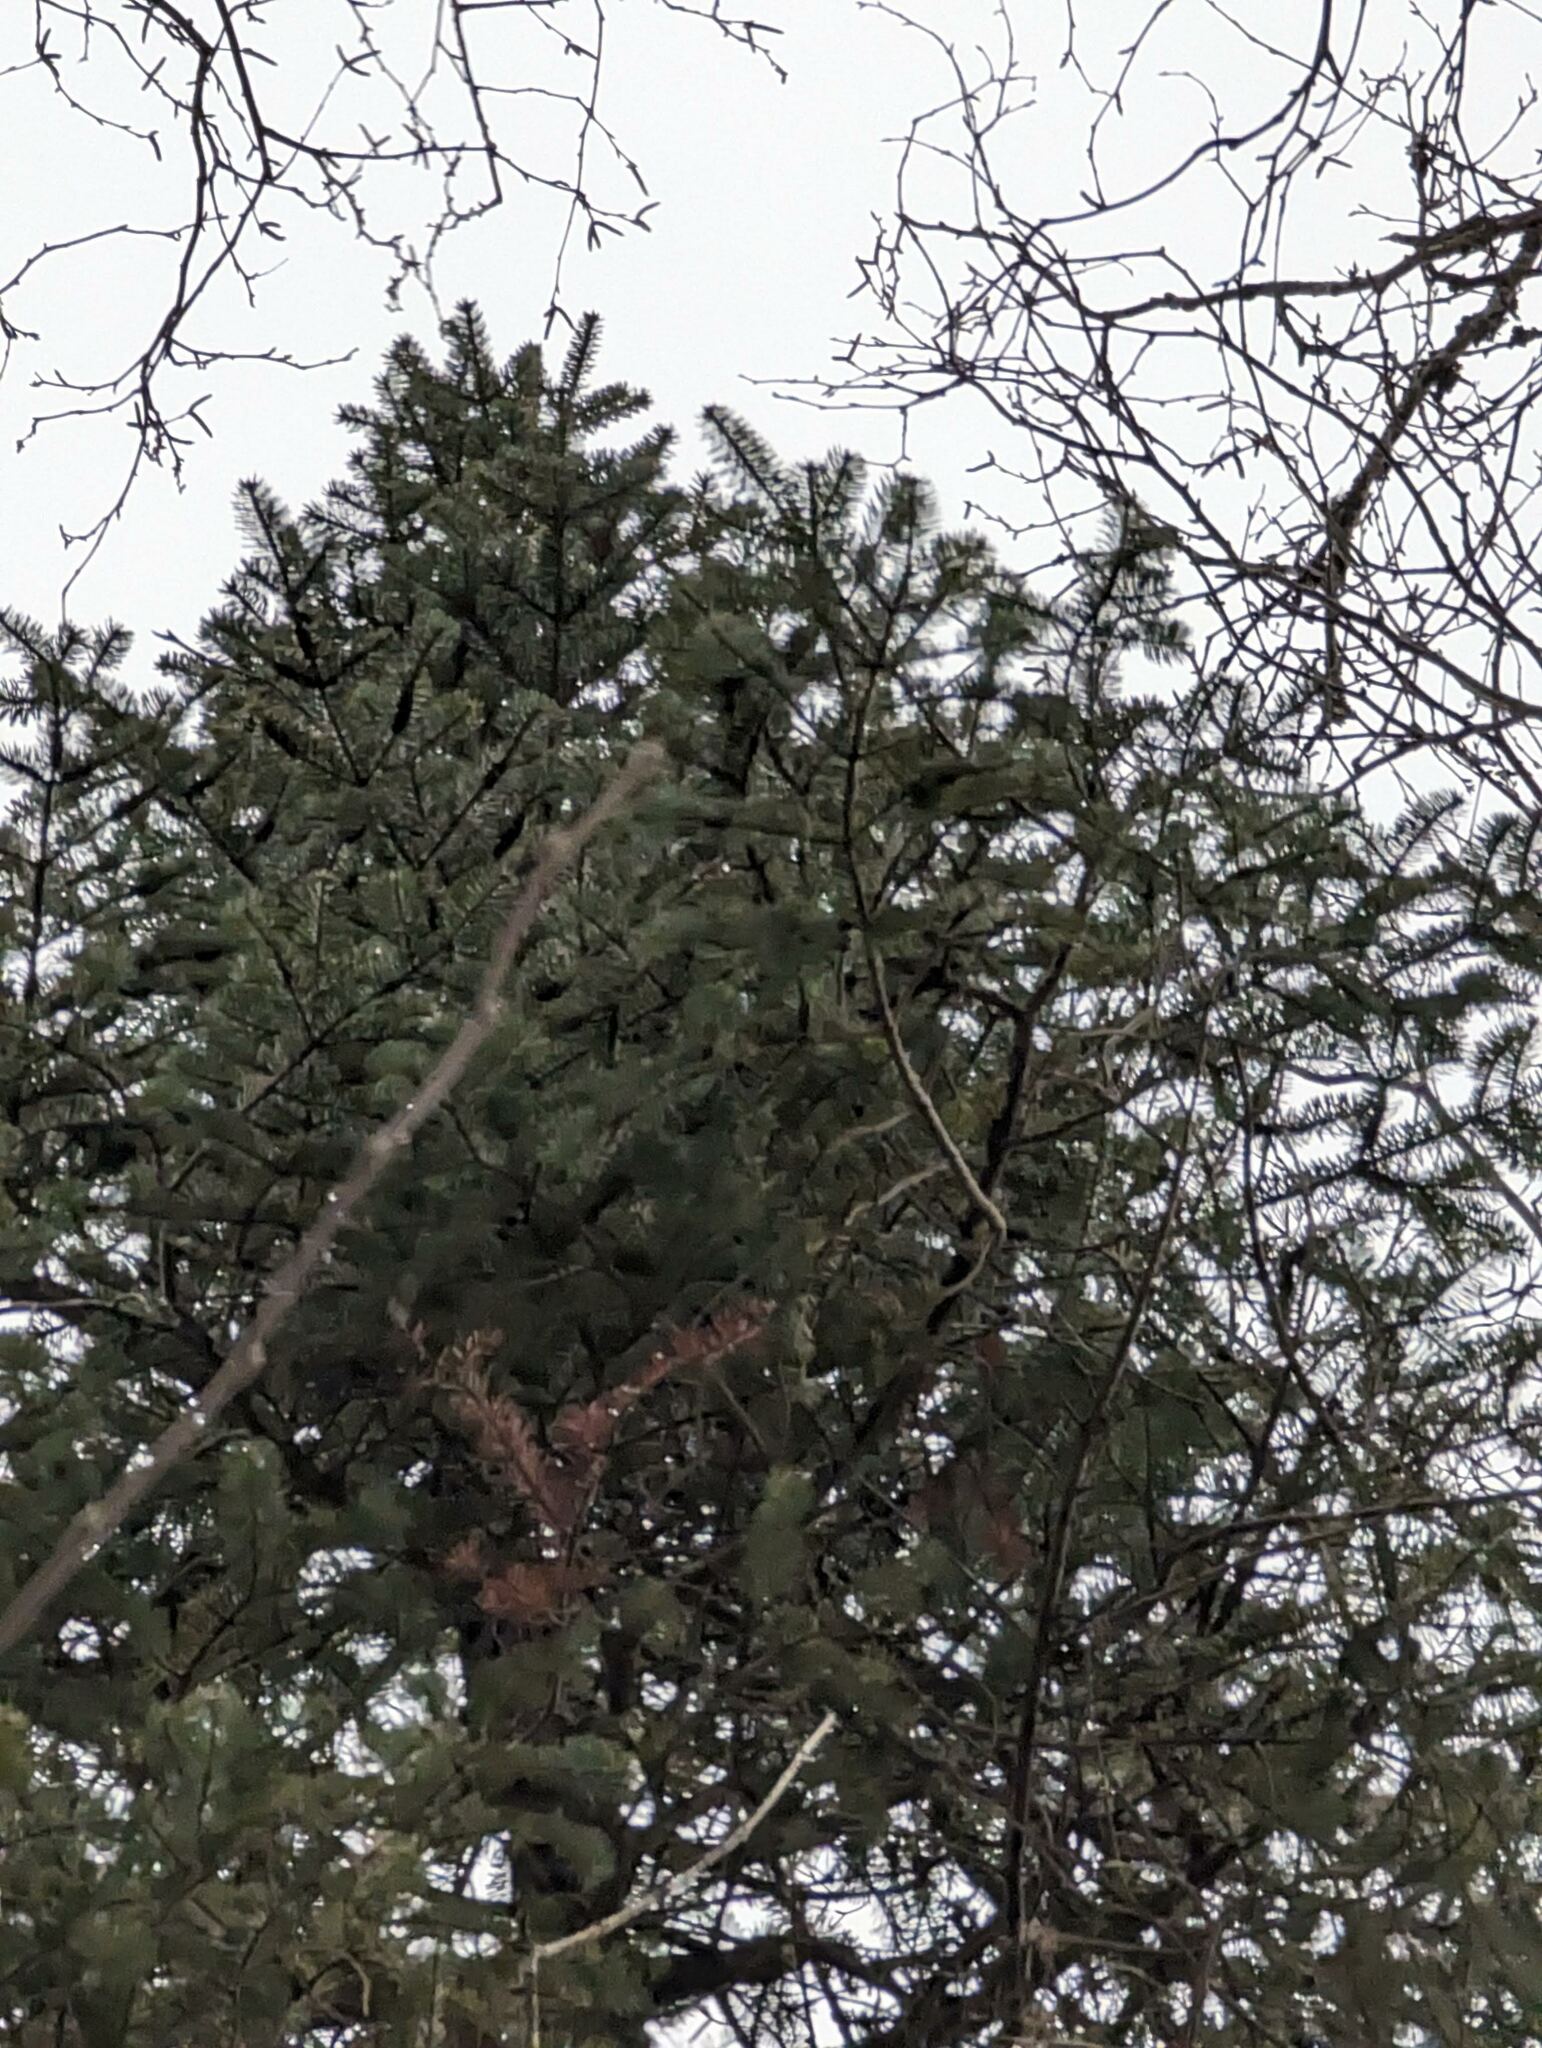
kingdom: Plantae
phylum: Tracheophyta
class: Pinopsida
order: Pinales
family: Pinaceae
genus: Abies
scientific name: Abies balsamea
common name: Balsam fir
